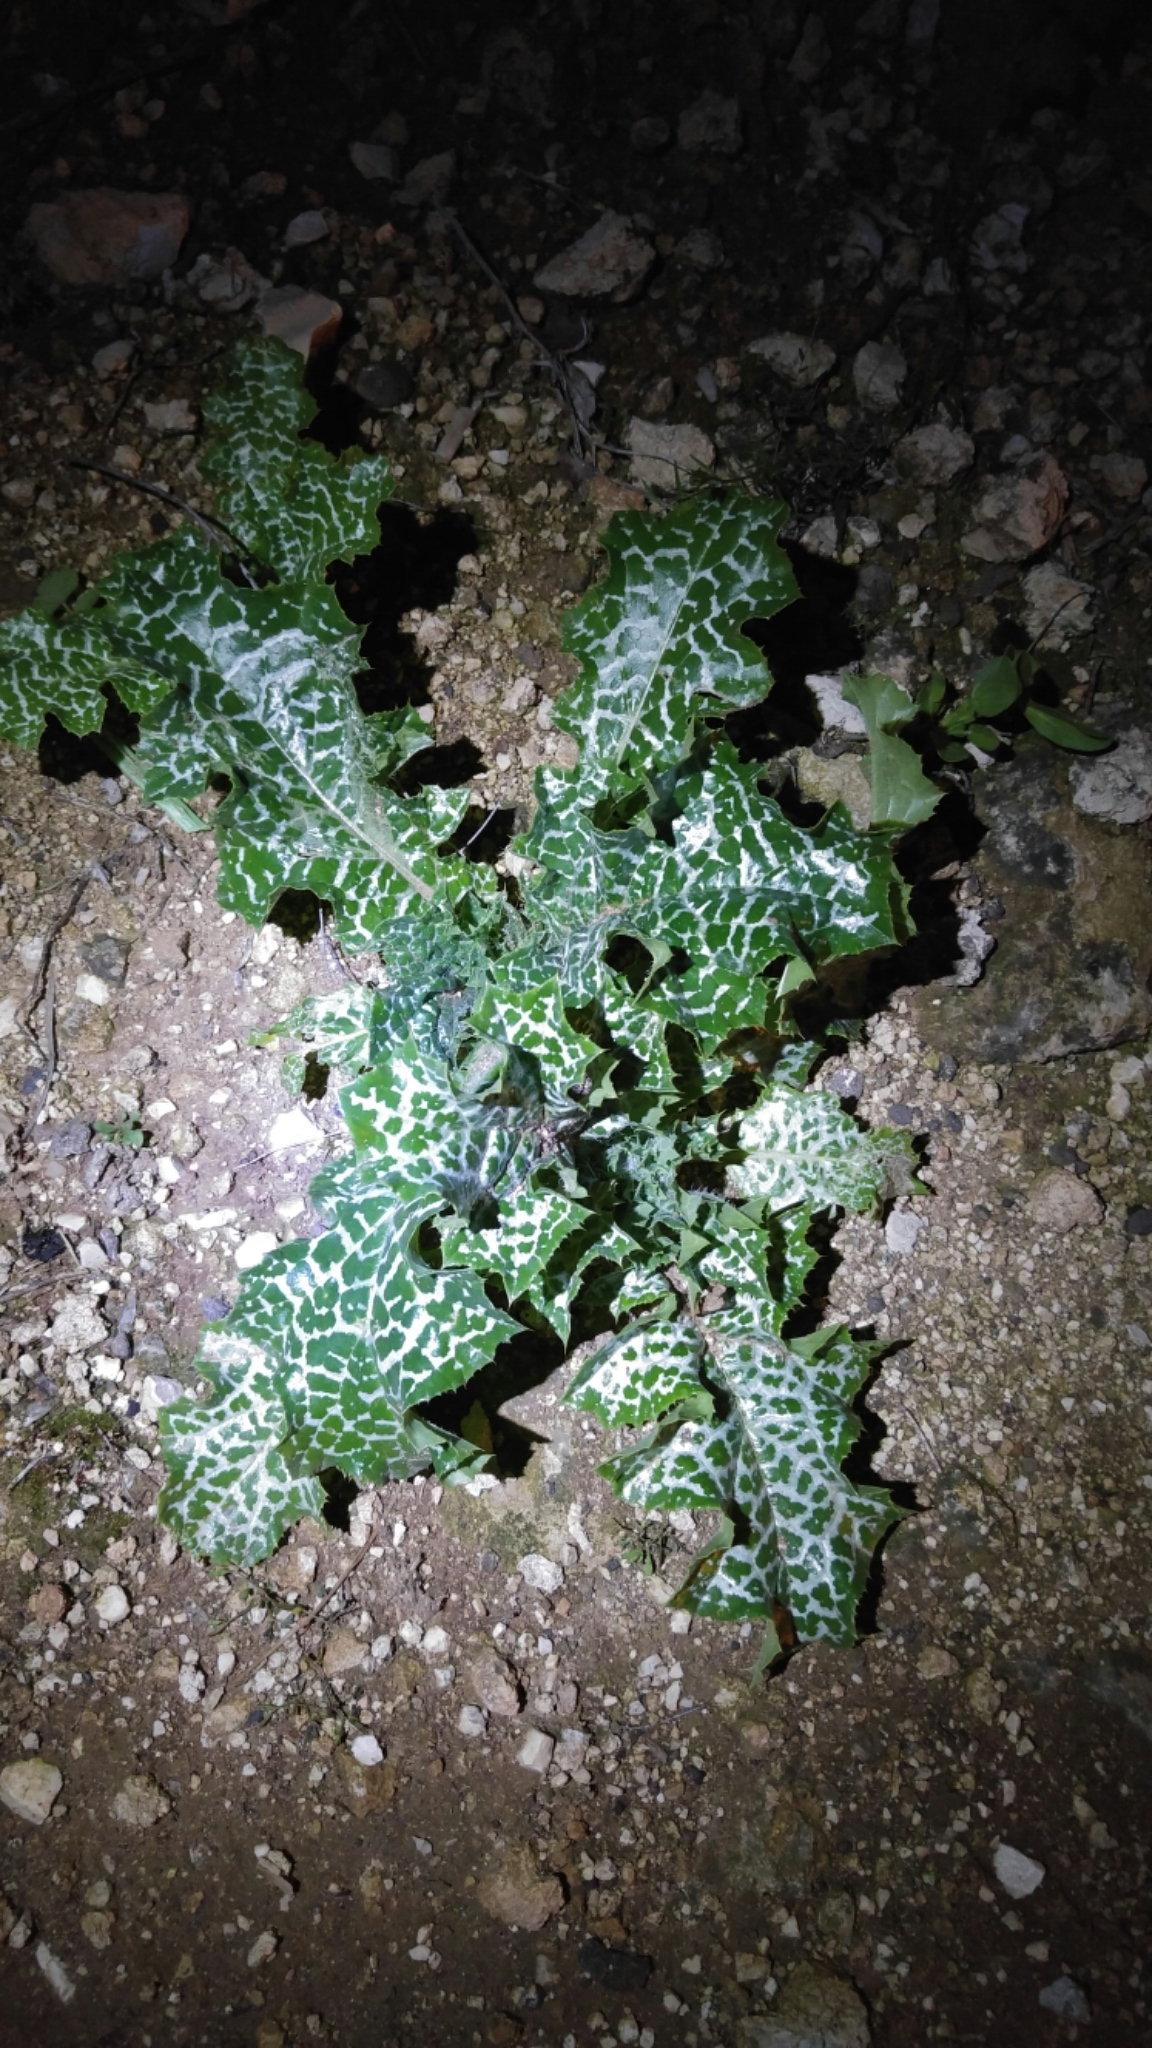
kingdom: Plantae
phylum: Tracheophyta
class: Magnoliopsida
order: Asterales
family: Asteraceae
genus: Silybum
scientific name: Silybum marianum
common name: Milk thistle
